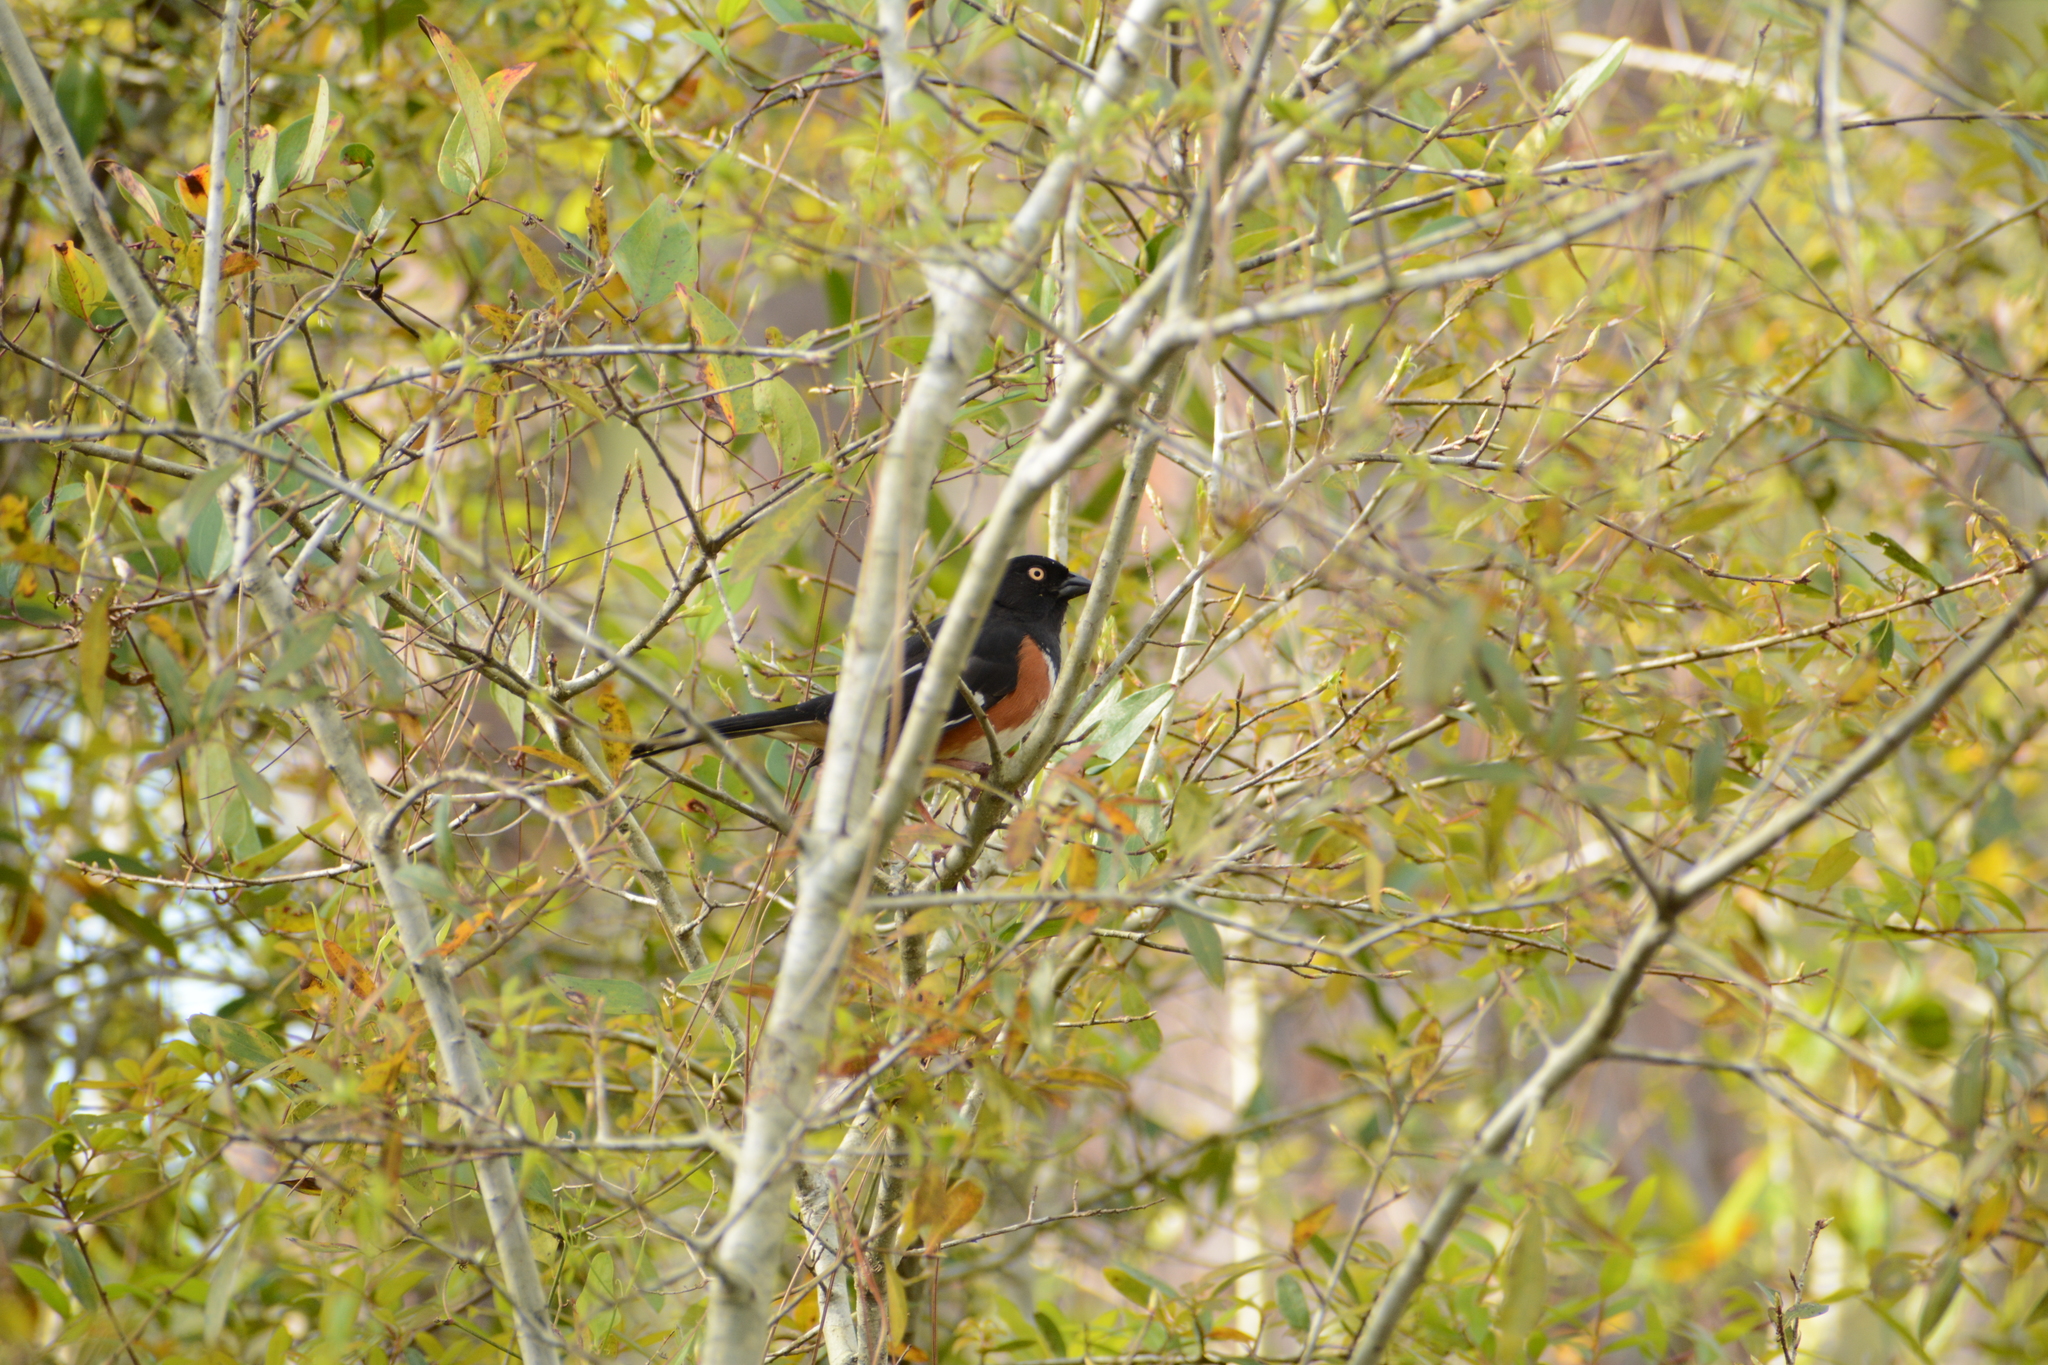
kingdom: Animalia
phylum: Chordata
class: Aves
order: Passeriformes
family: Passerellidae
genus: Pipilo
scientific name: Pipilo erythrophthalmus
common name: Eastern towhee
